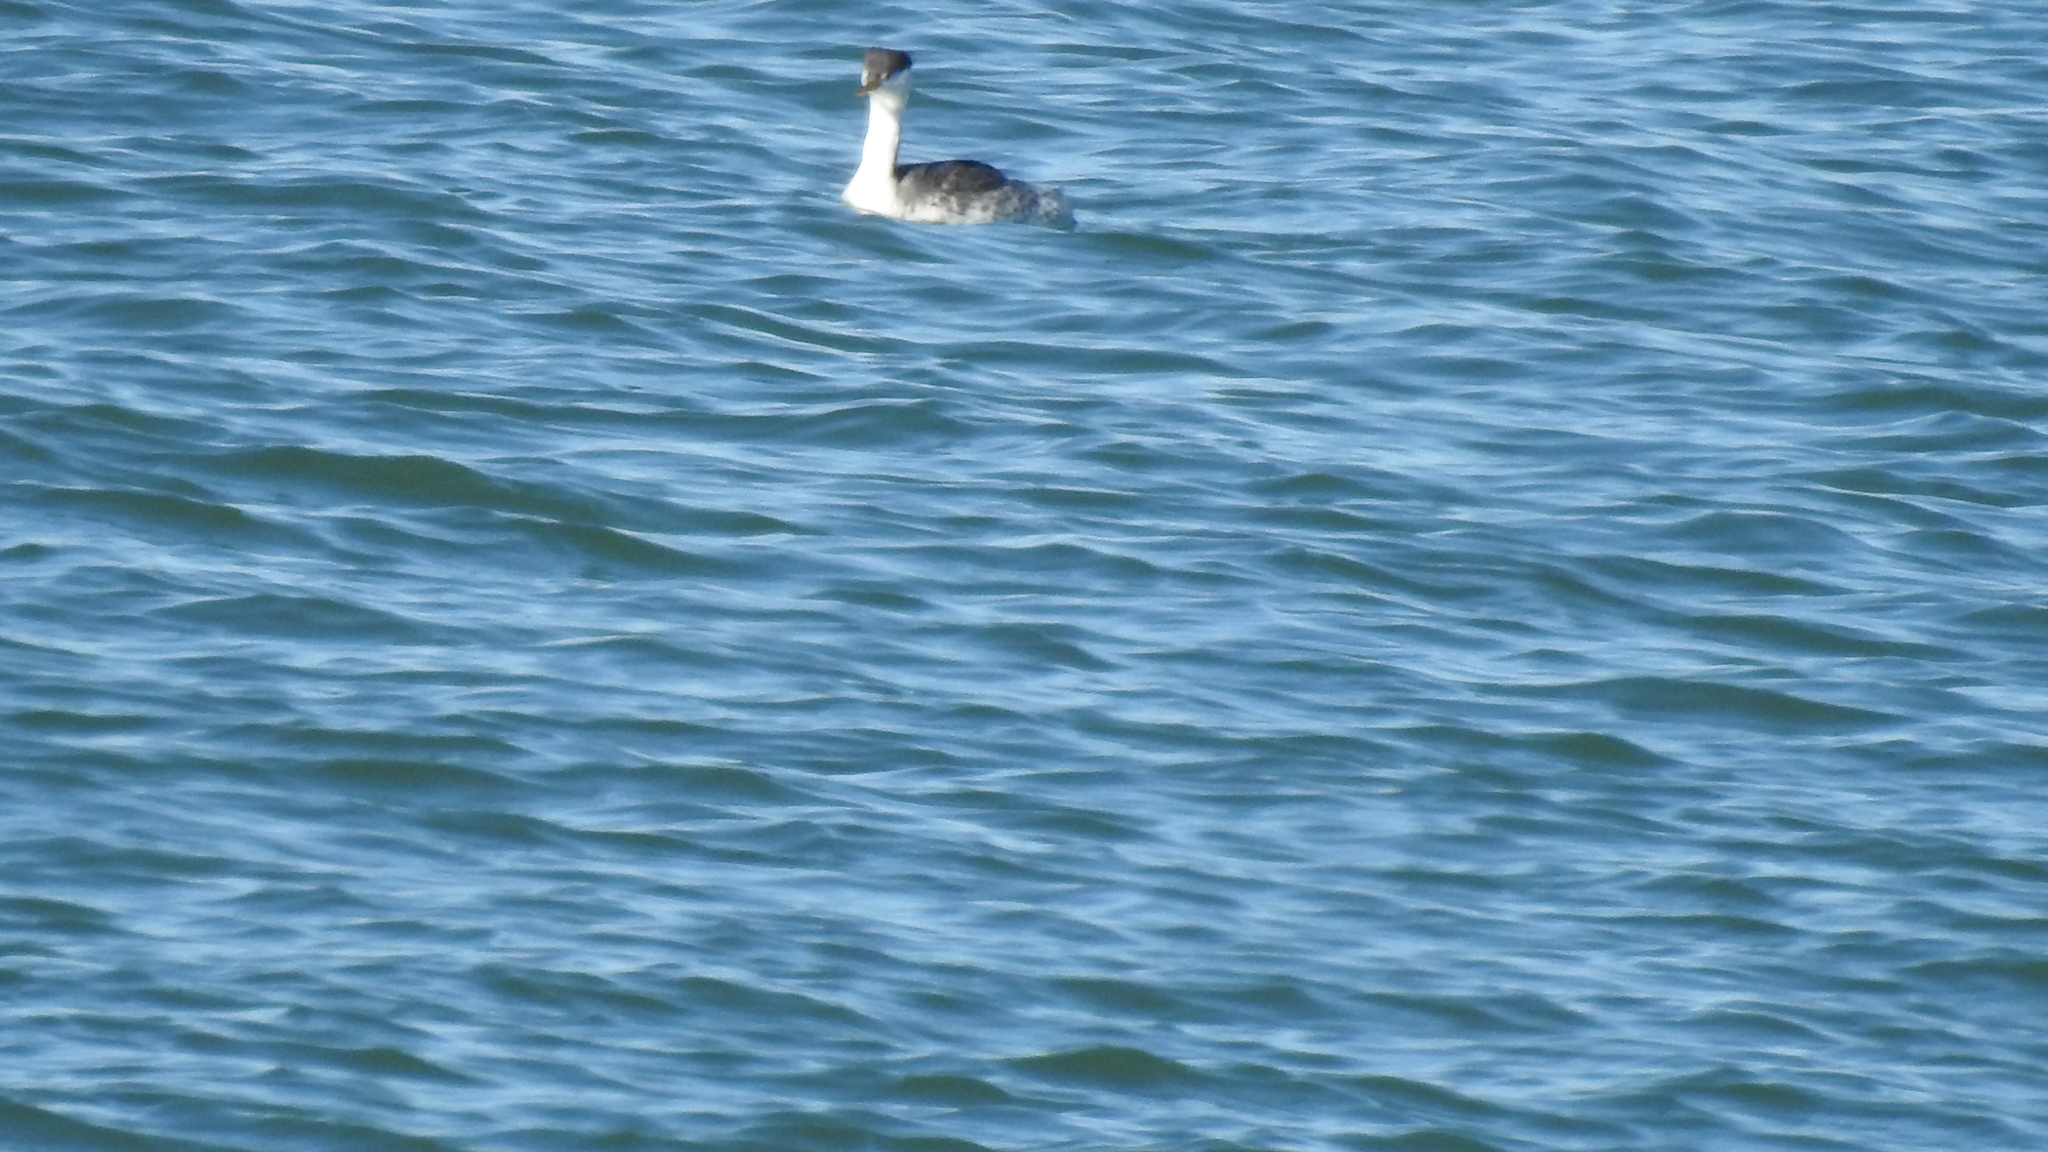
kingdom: Animalia
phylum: Chordata
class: Aves
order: Podicipediformes
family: Podicipedidae
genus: Aechmophorus
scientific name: Aechmophorus occidentalis
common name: Western grebe
